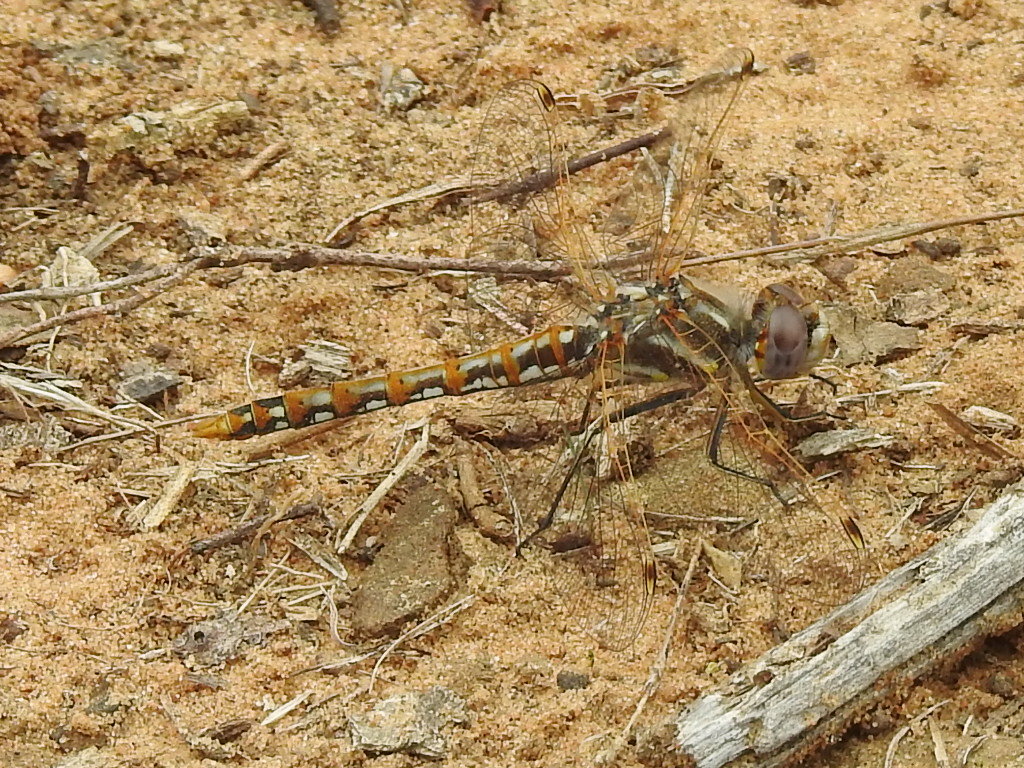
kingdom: Animalia
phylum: Arthropoda
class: Insecta
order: Odonata
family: Libellulidae
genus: Sympetrum
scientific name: Sympetrum corruptum
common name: Variegated meadowhawk
